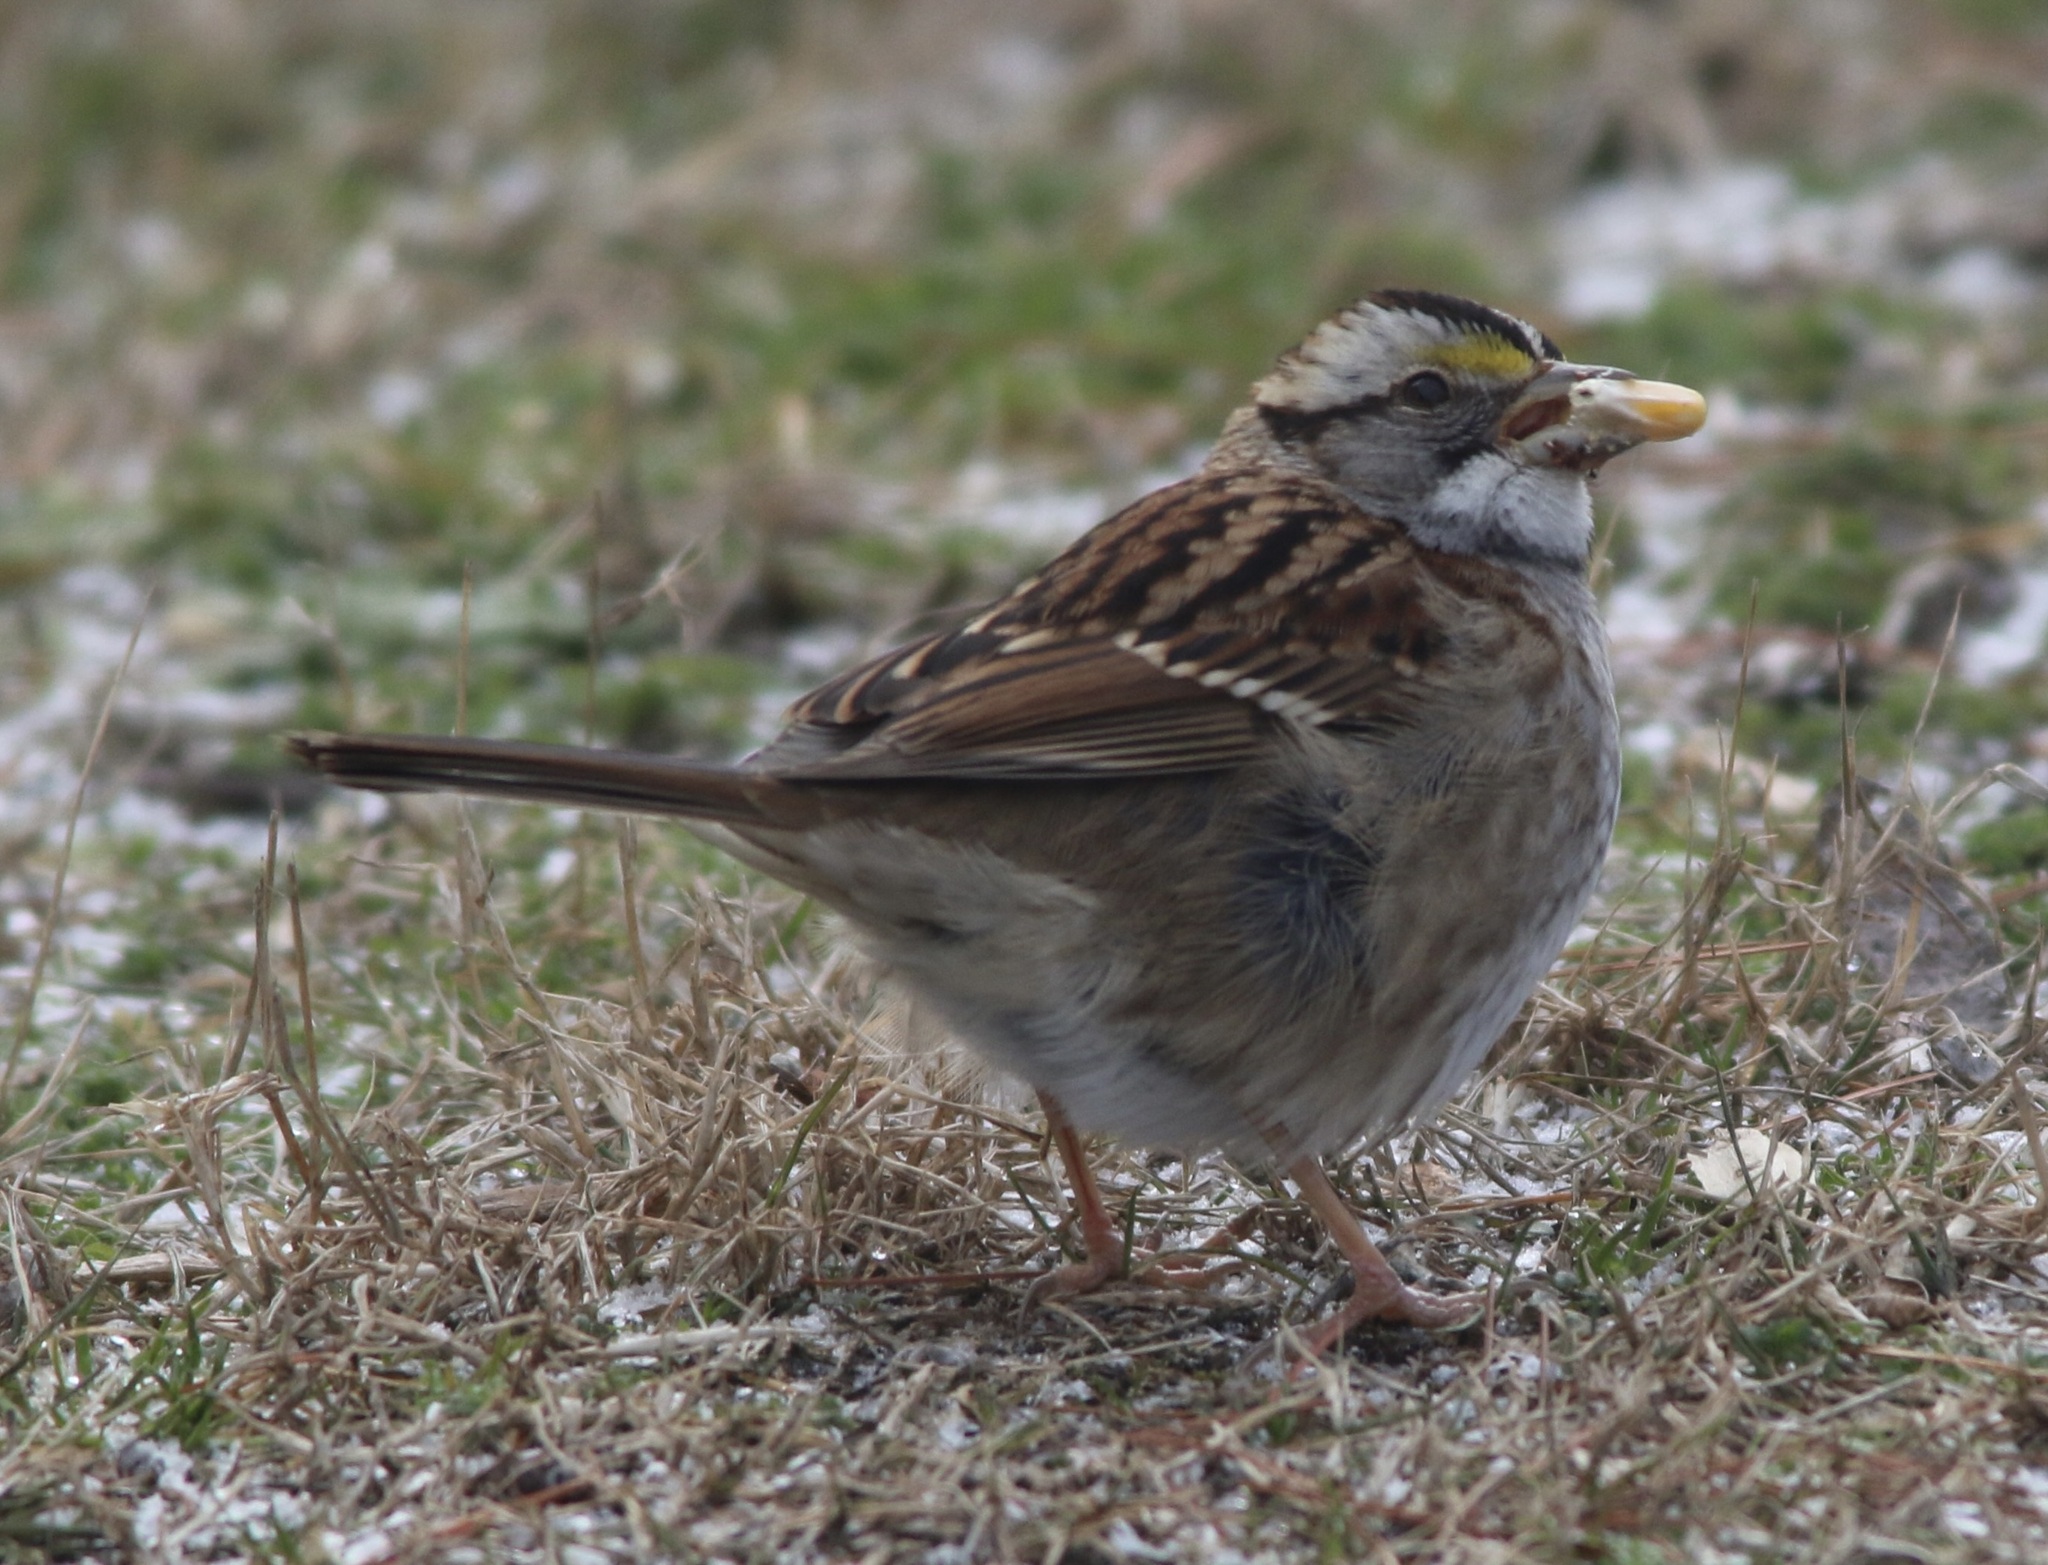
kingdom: Animalia
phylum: Chordata
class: Aves
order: Passeriformes
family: Passerellidae
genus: Zonotrichia
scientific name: Zonotrichia albicollis
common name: White-throated sparrow
